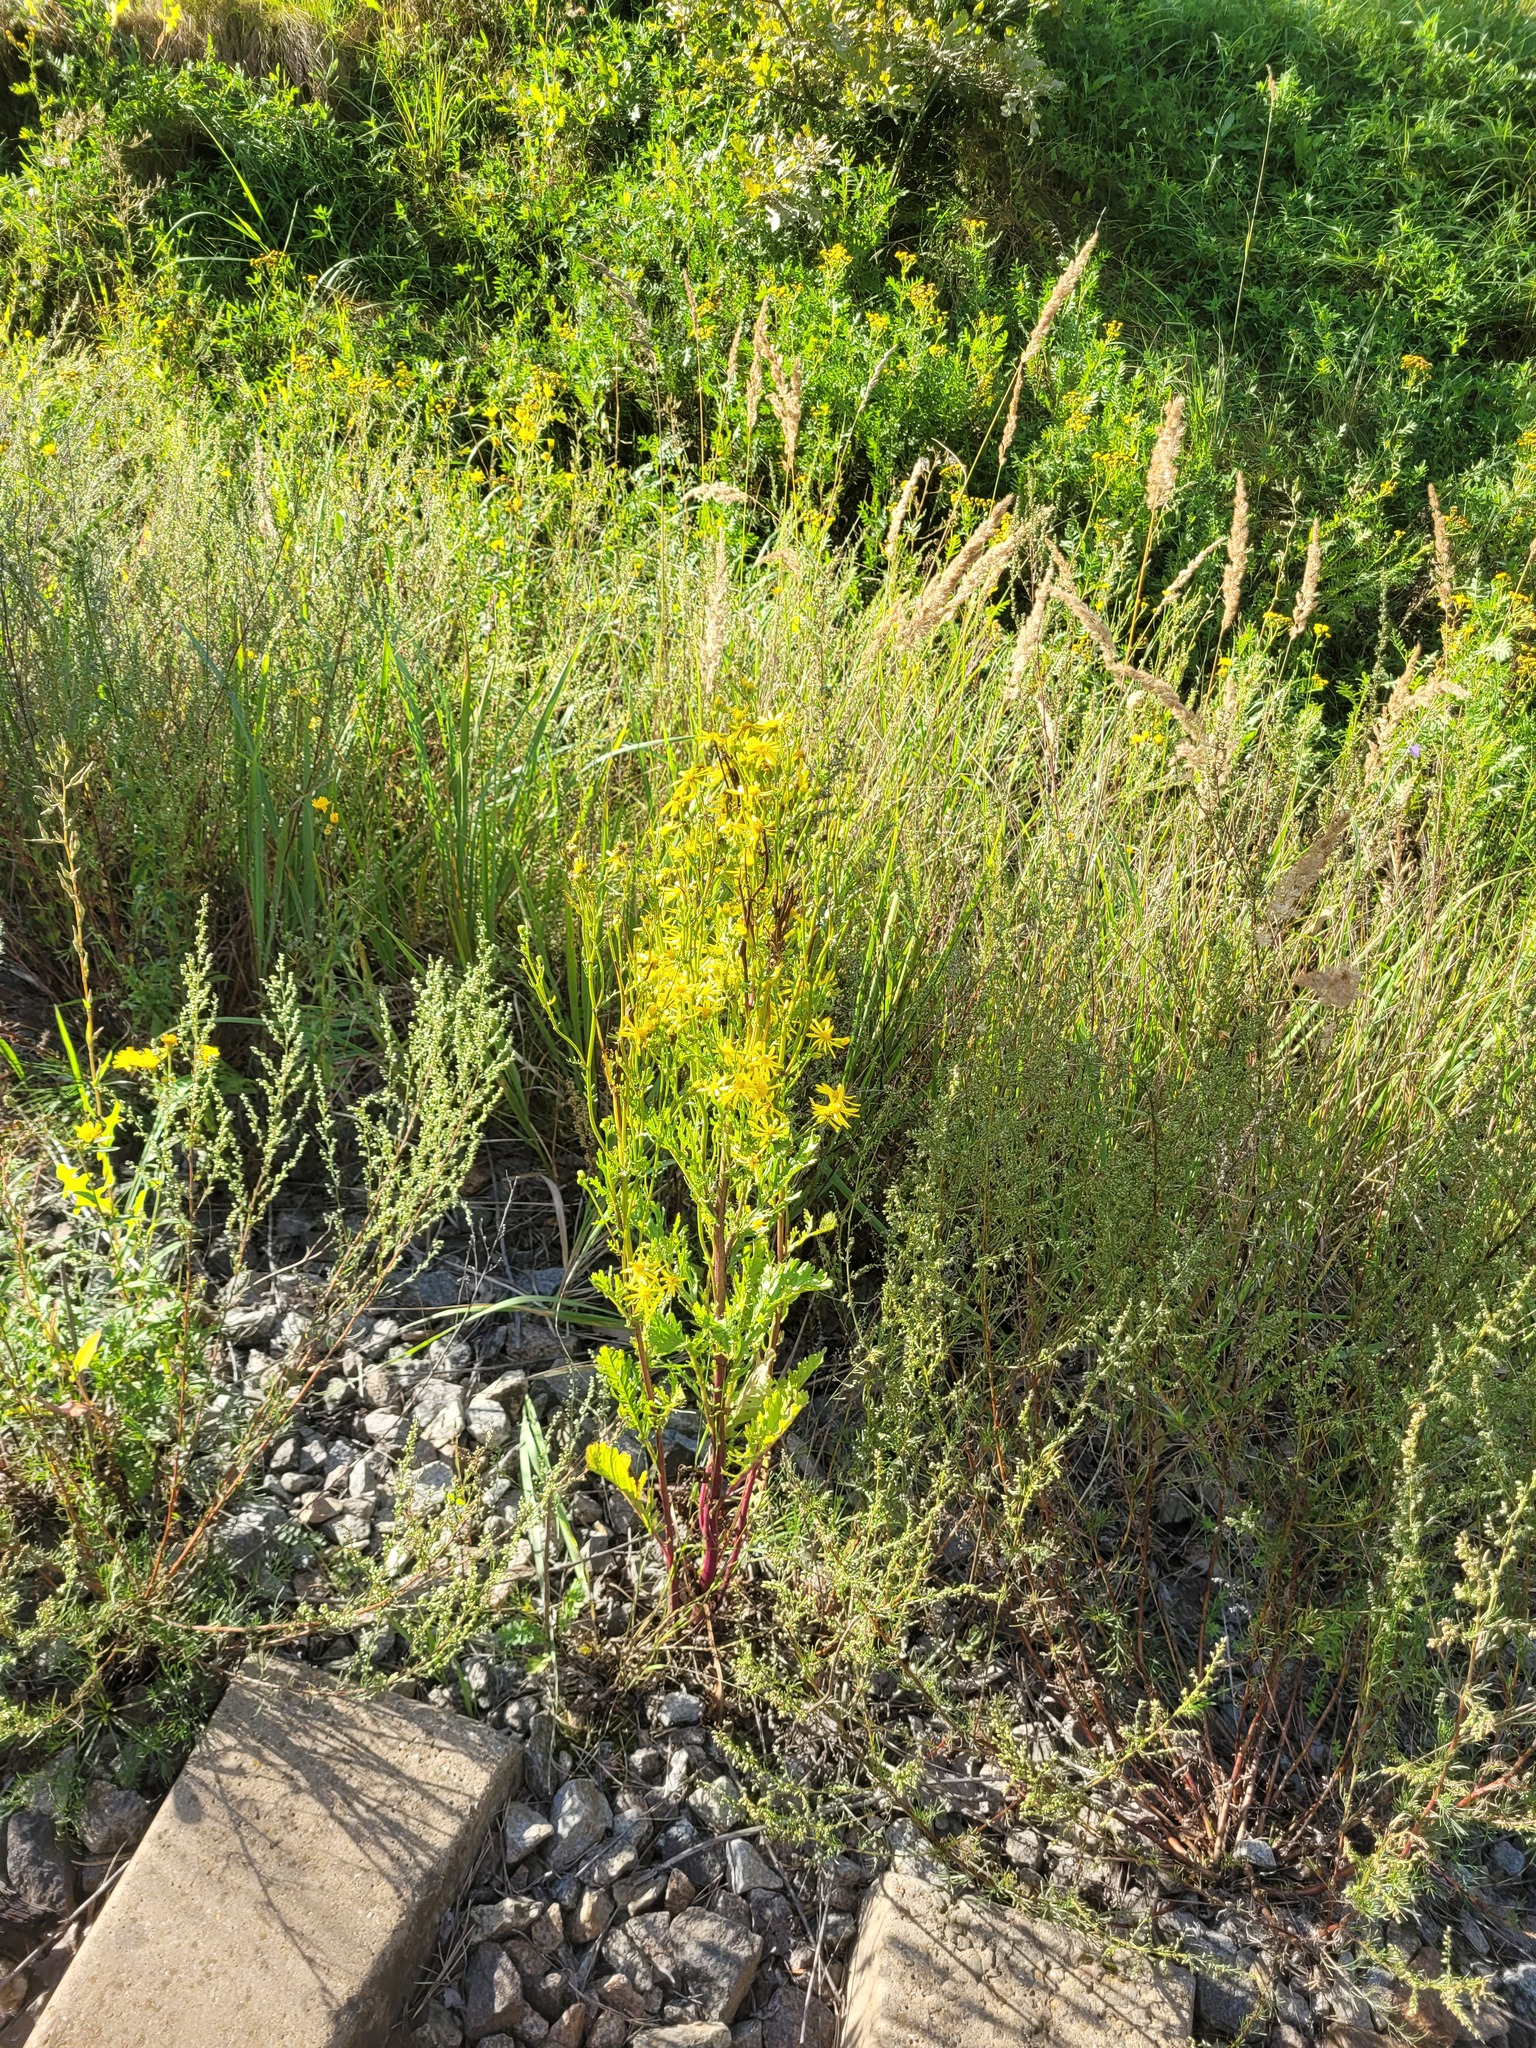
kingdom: Plantae
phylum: Tracheophyta
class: Magnoliopsida
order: Asterales
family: Asteraceae
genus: Jacobaea
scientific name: Jacobaea vulgaris
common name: Stinking willie
